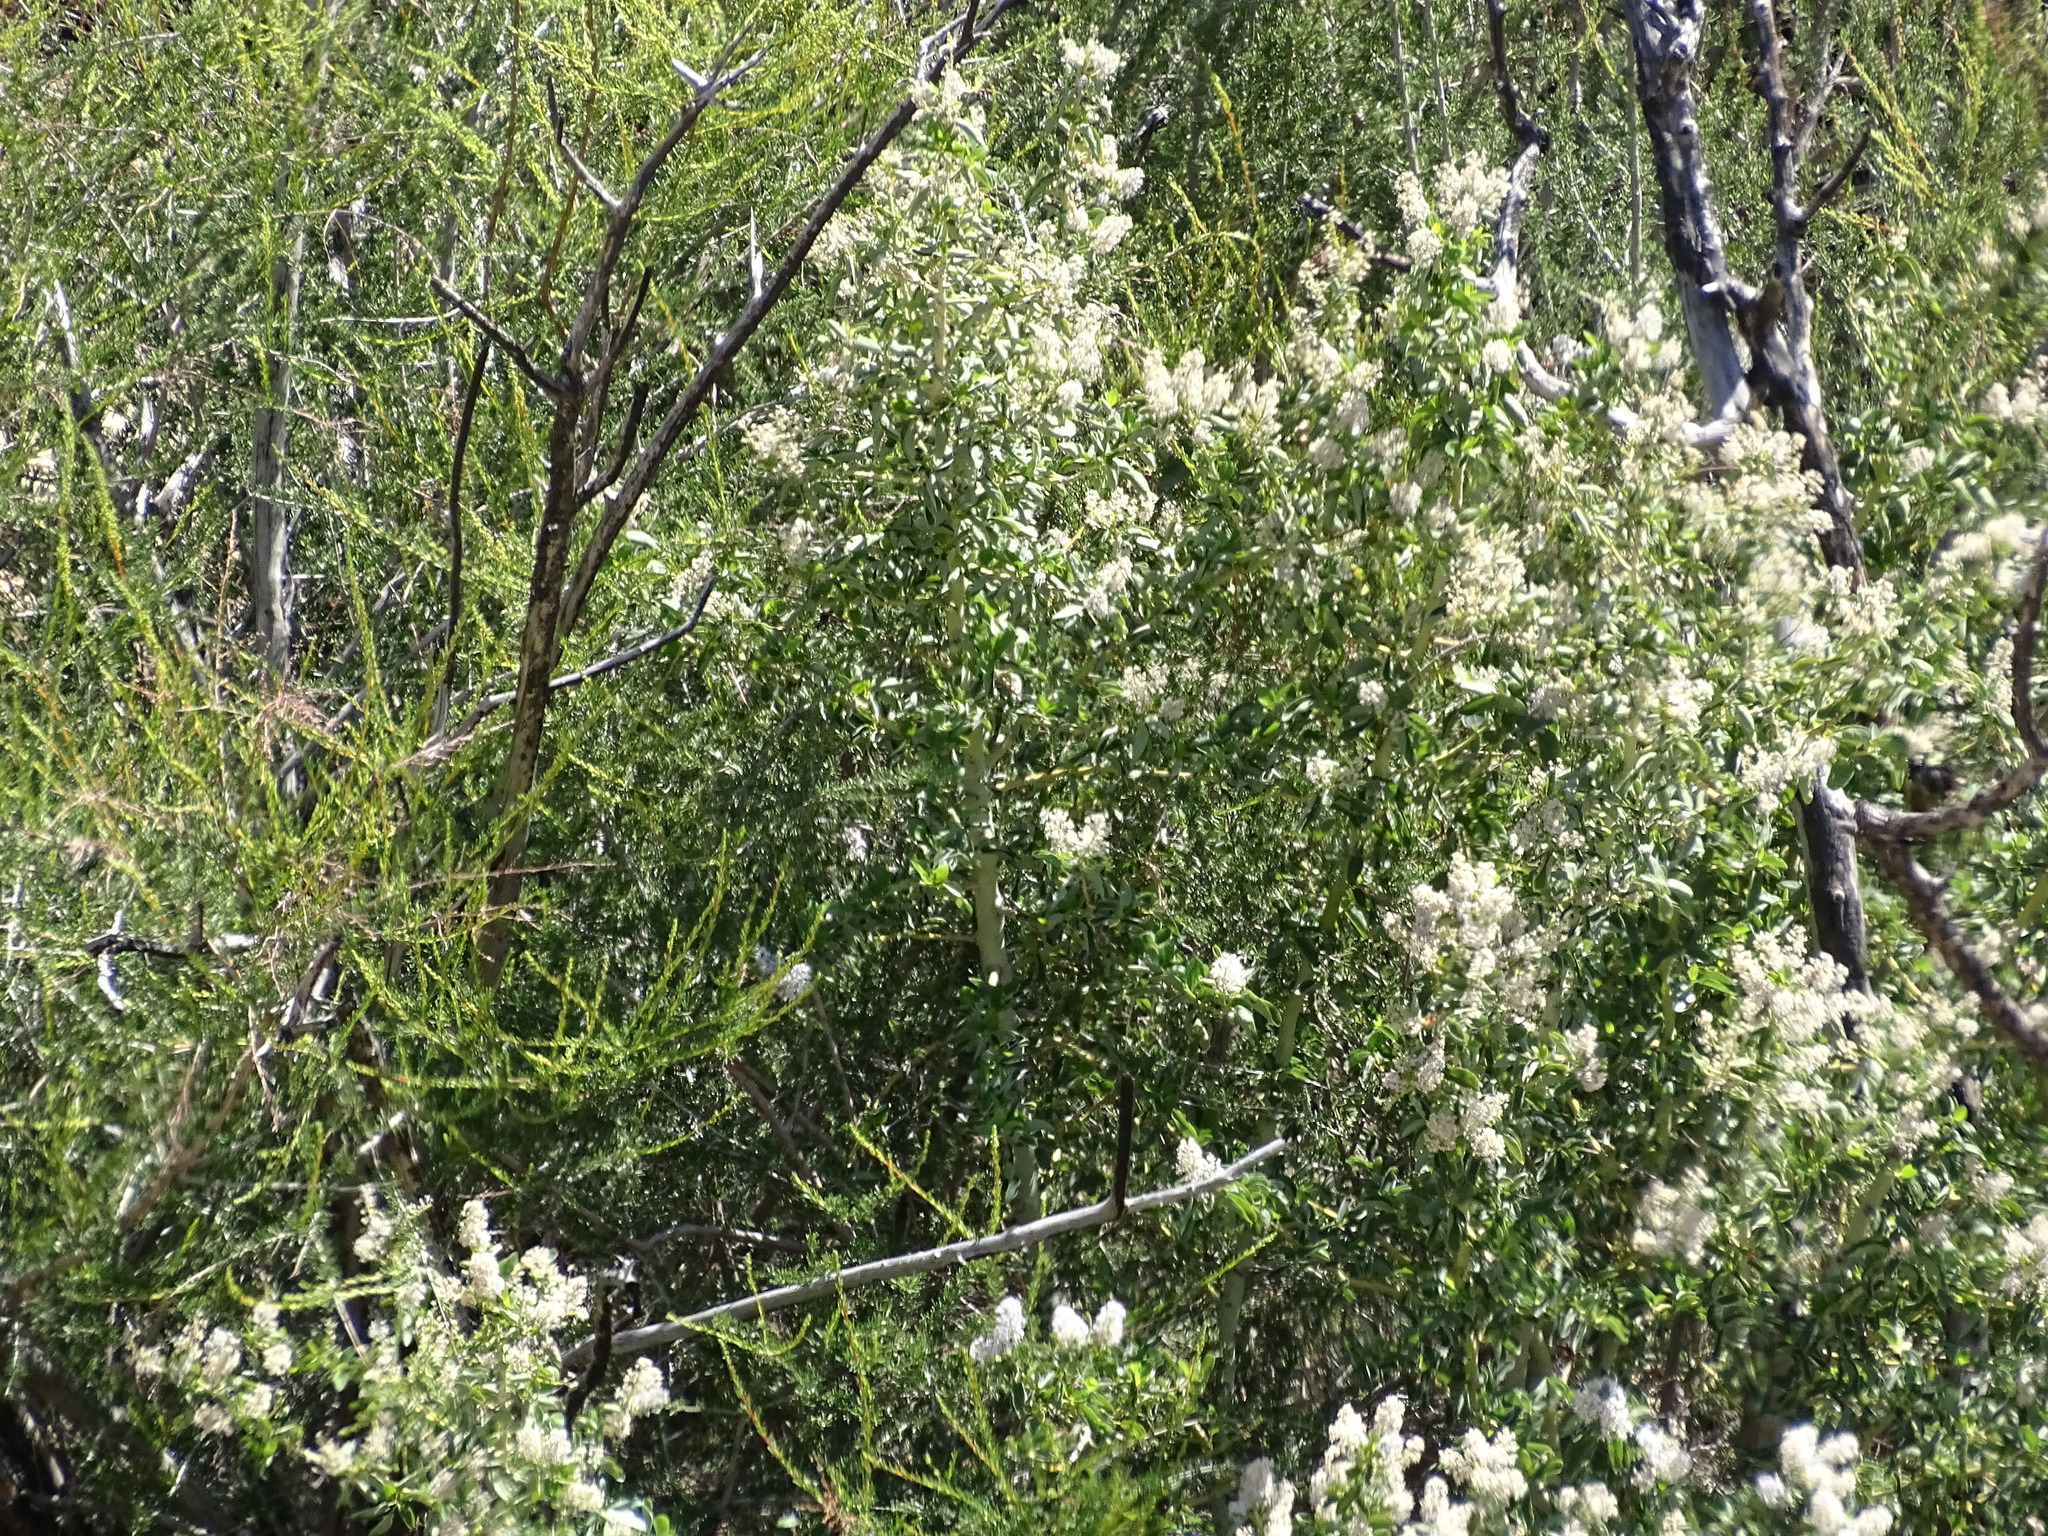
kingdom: Plantae
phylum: Tracheophyta
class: Magnoliopsida
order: Rosales
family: Rhamnaceae
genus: Ceanothus
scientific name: Ceanothus leucodermis
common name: Chaparral whitethorn
